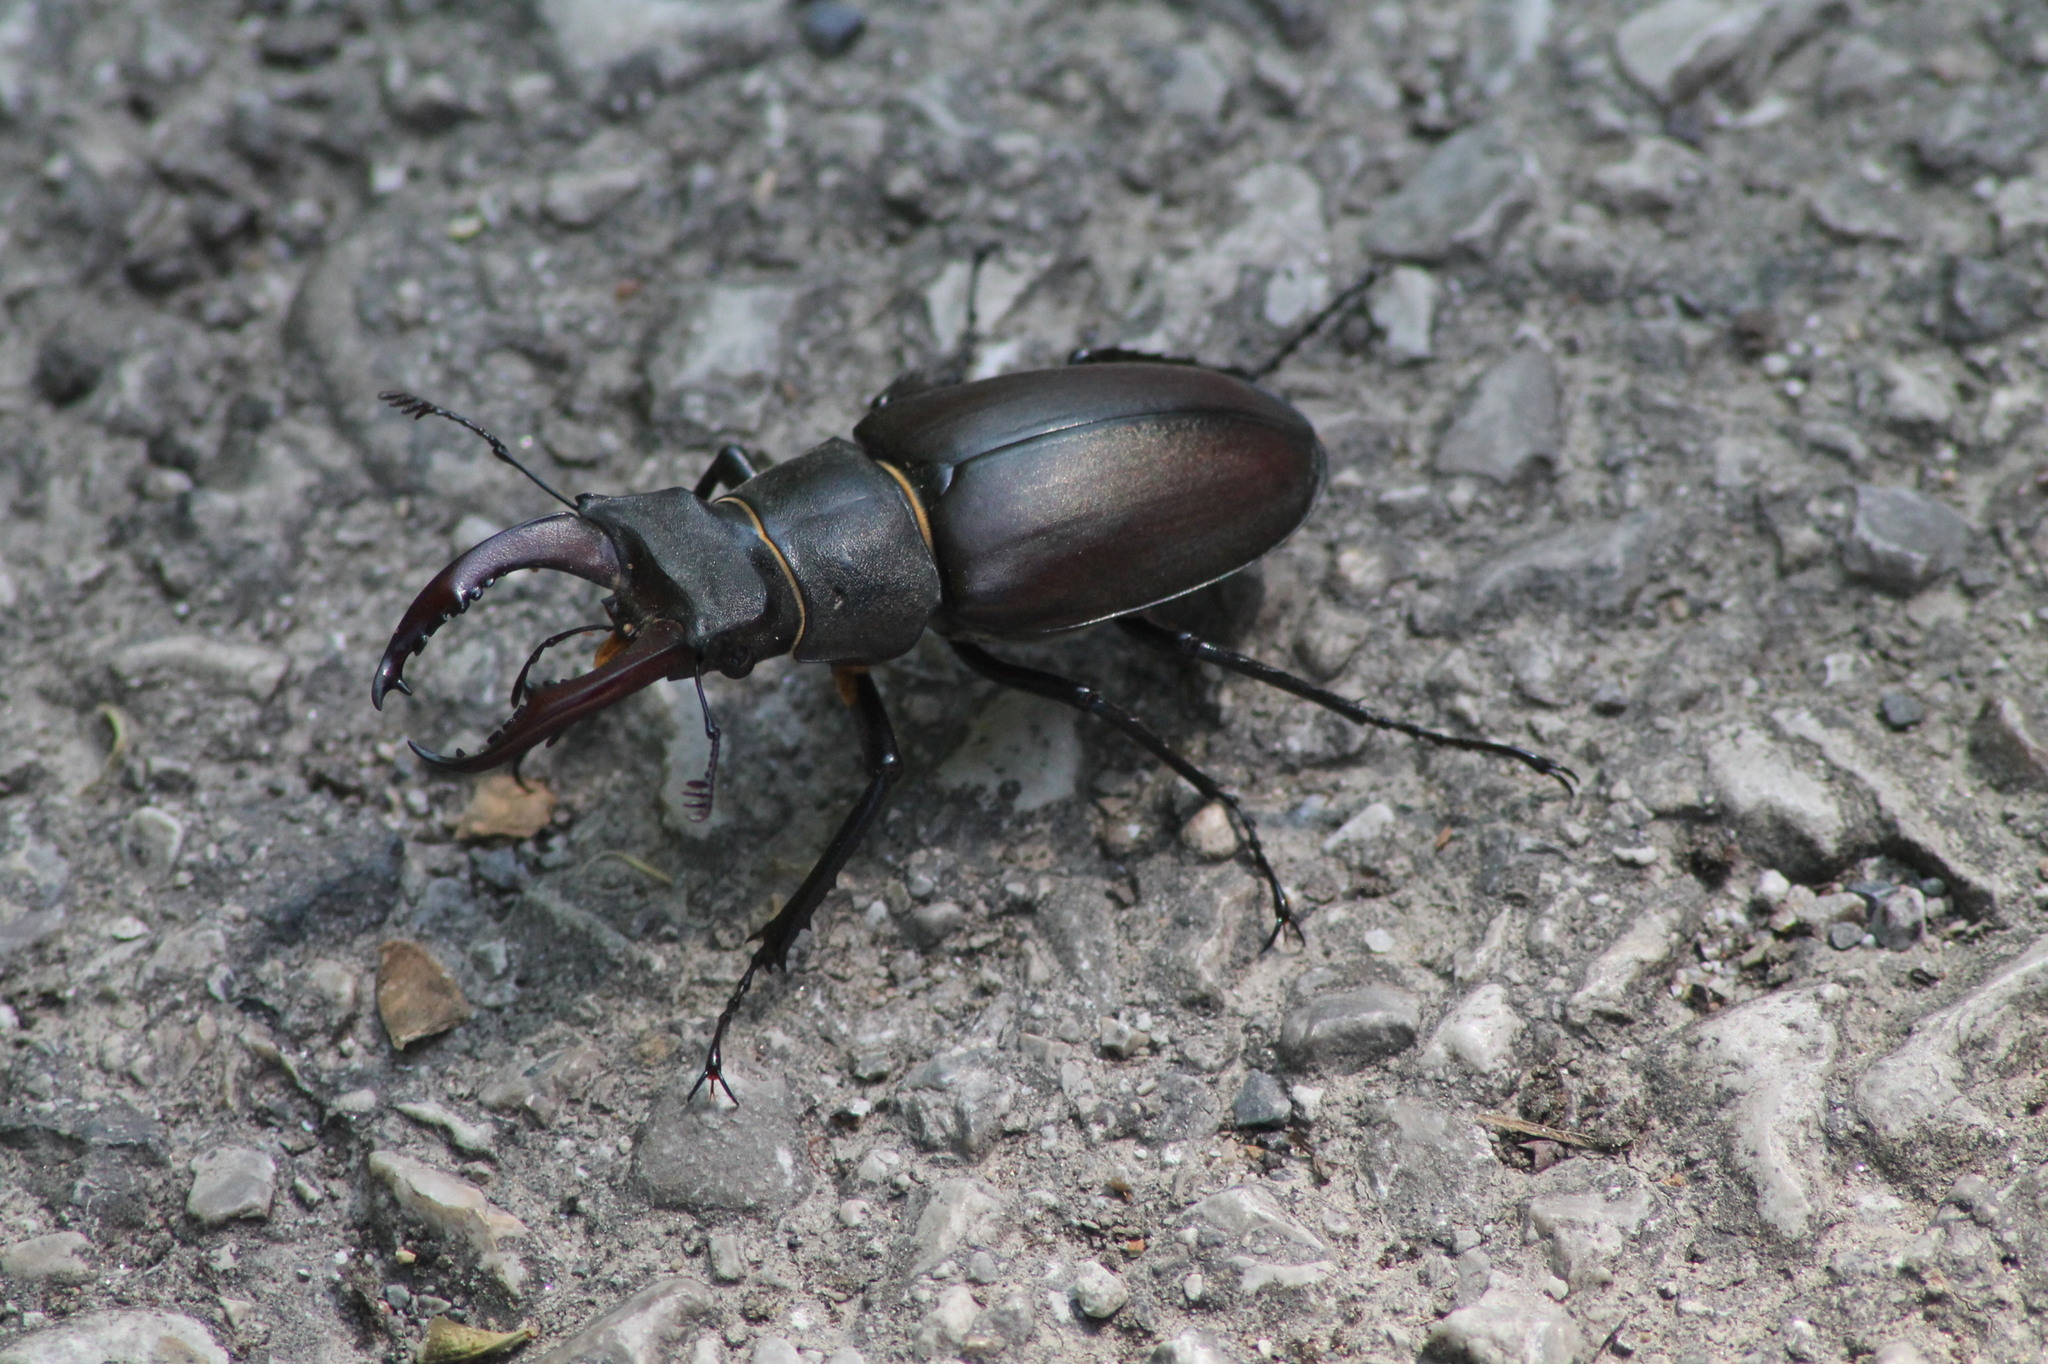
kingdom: Animalia
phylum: Arthropoda
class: Insecta
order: Coleoptera
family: Lucanidae
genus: Lucanus
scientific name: Lucanus cervus
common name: Stag beetle
